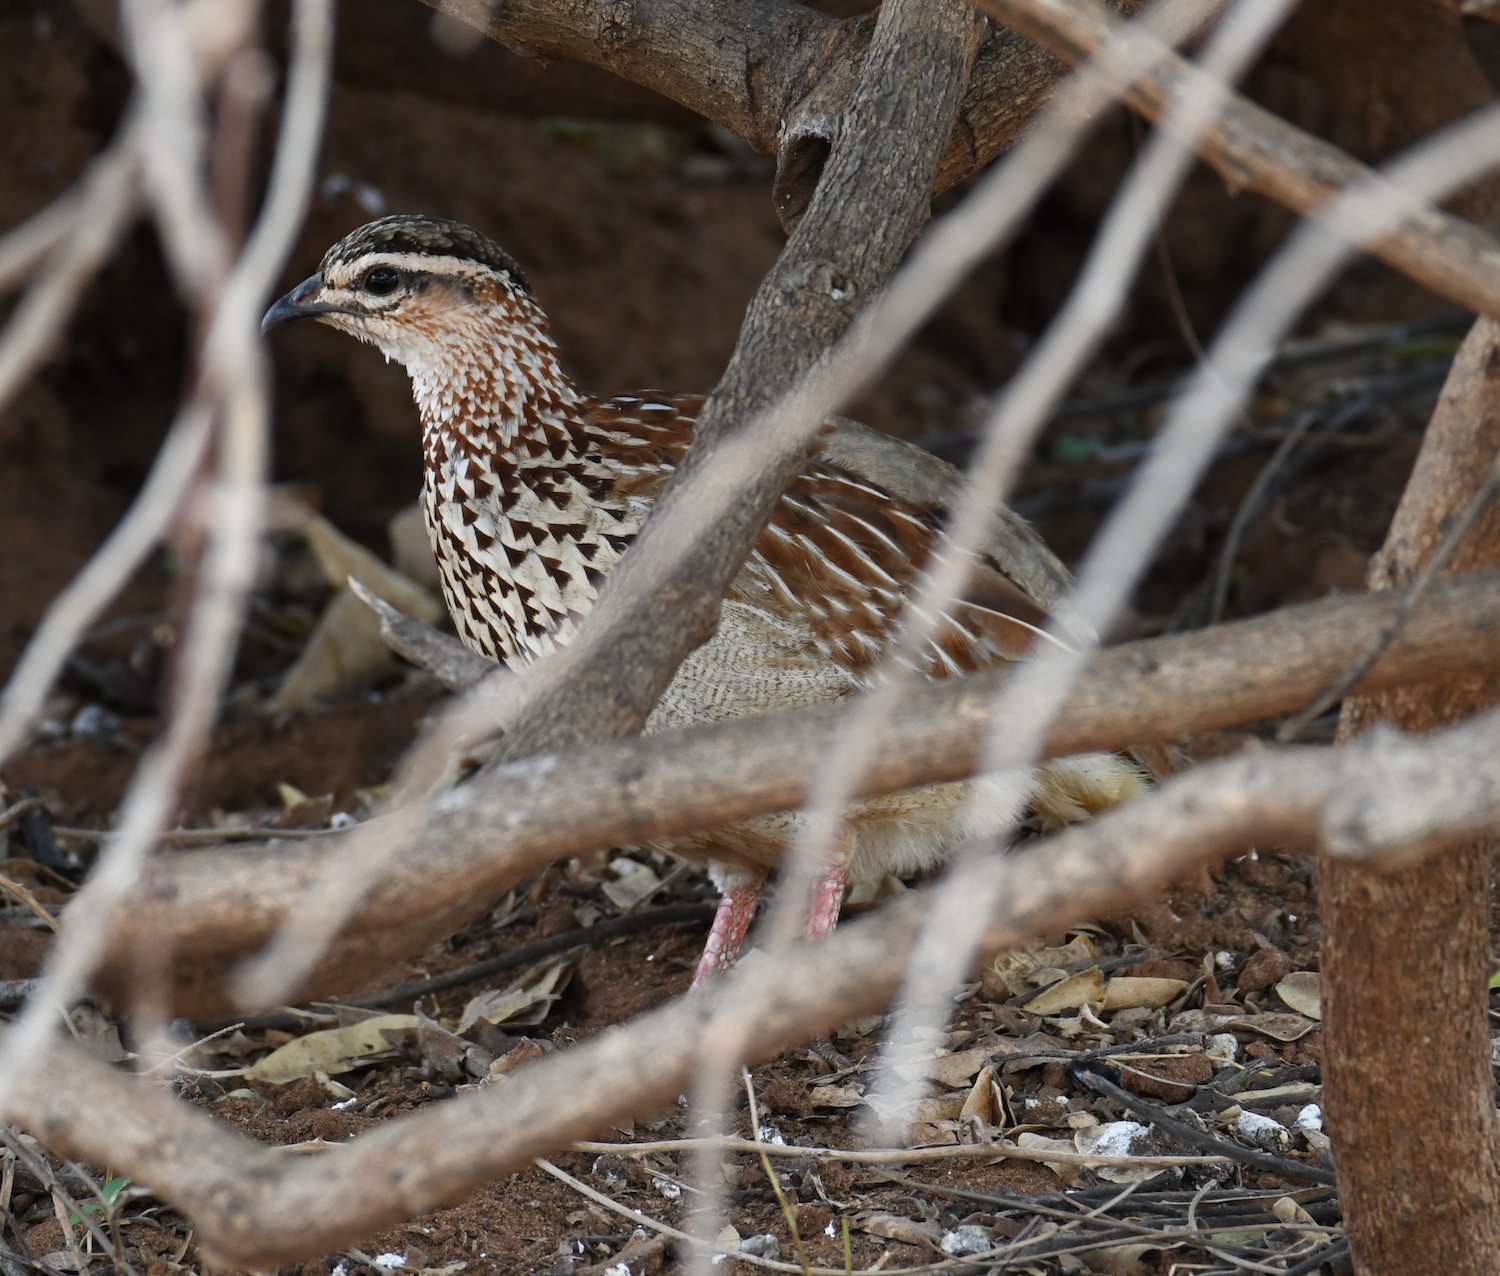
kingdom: Animalia
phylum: Chordata
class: Aves
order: Galliformes
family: Phasianidae
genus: Ortygornis
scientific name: Ortygornis sephaena
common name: Crested francolin
